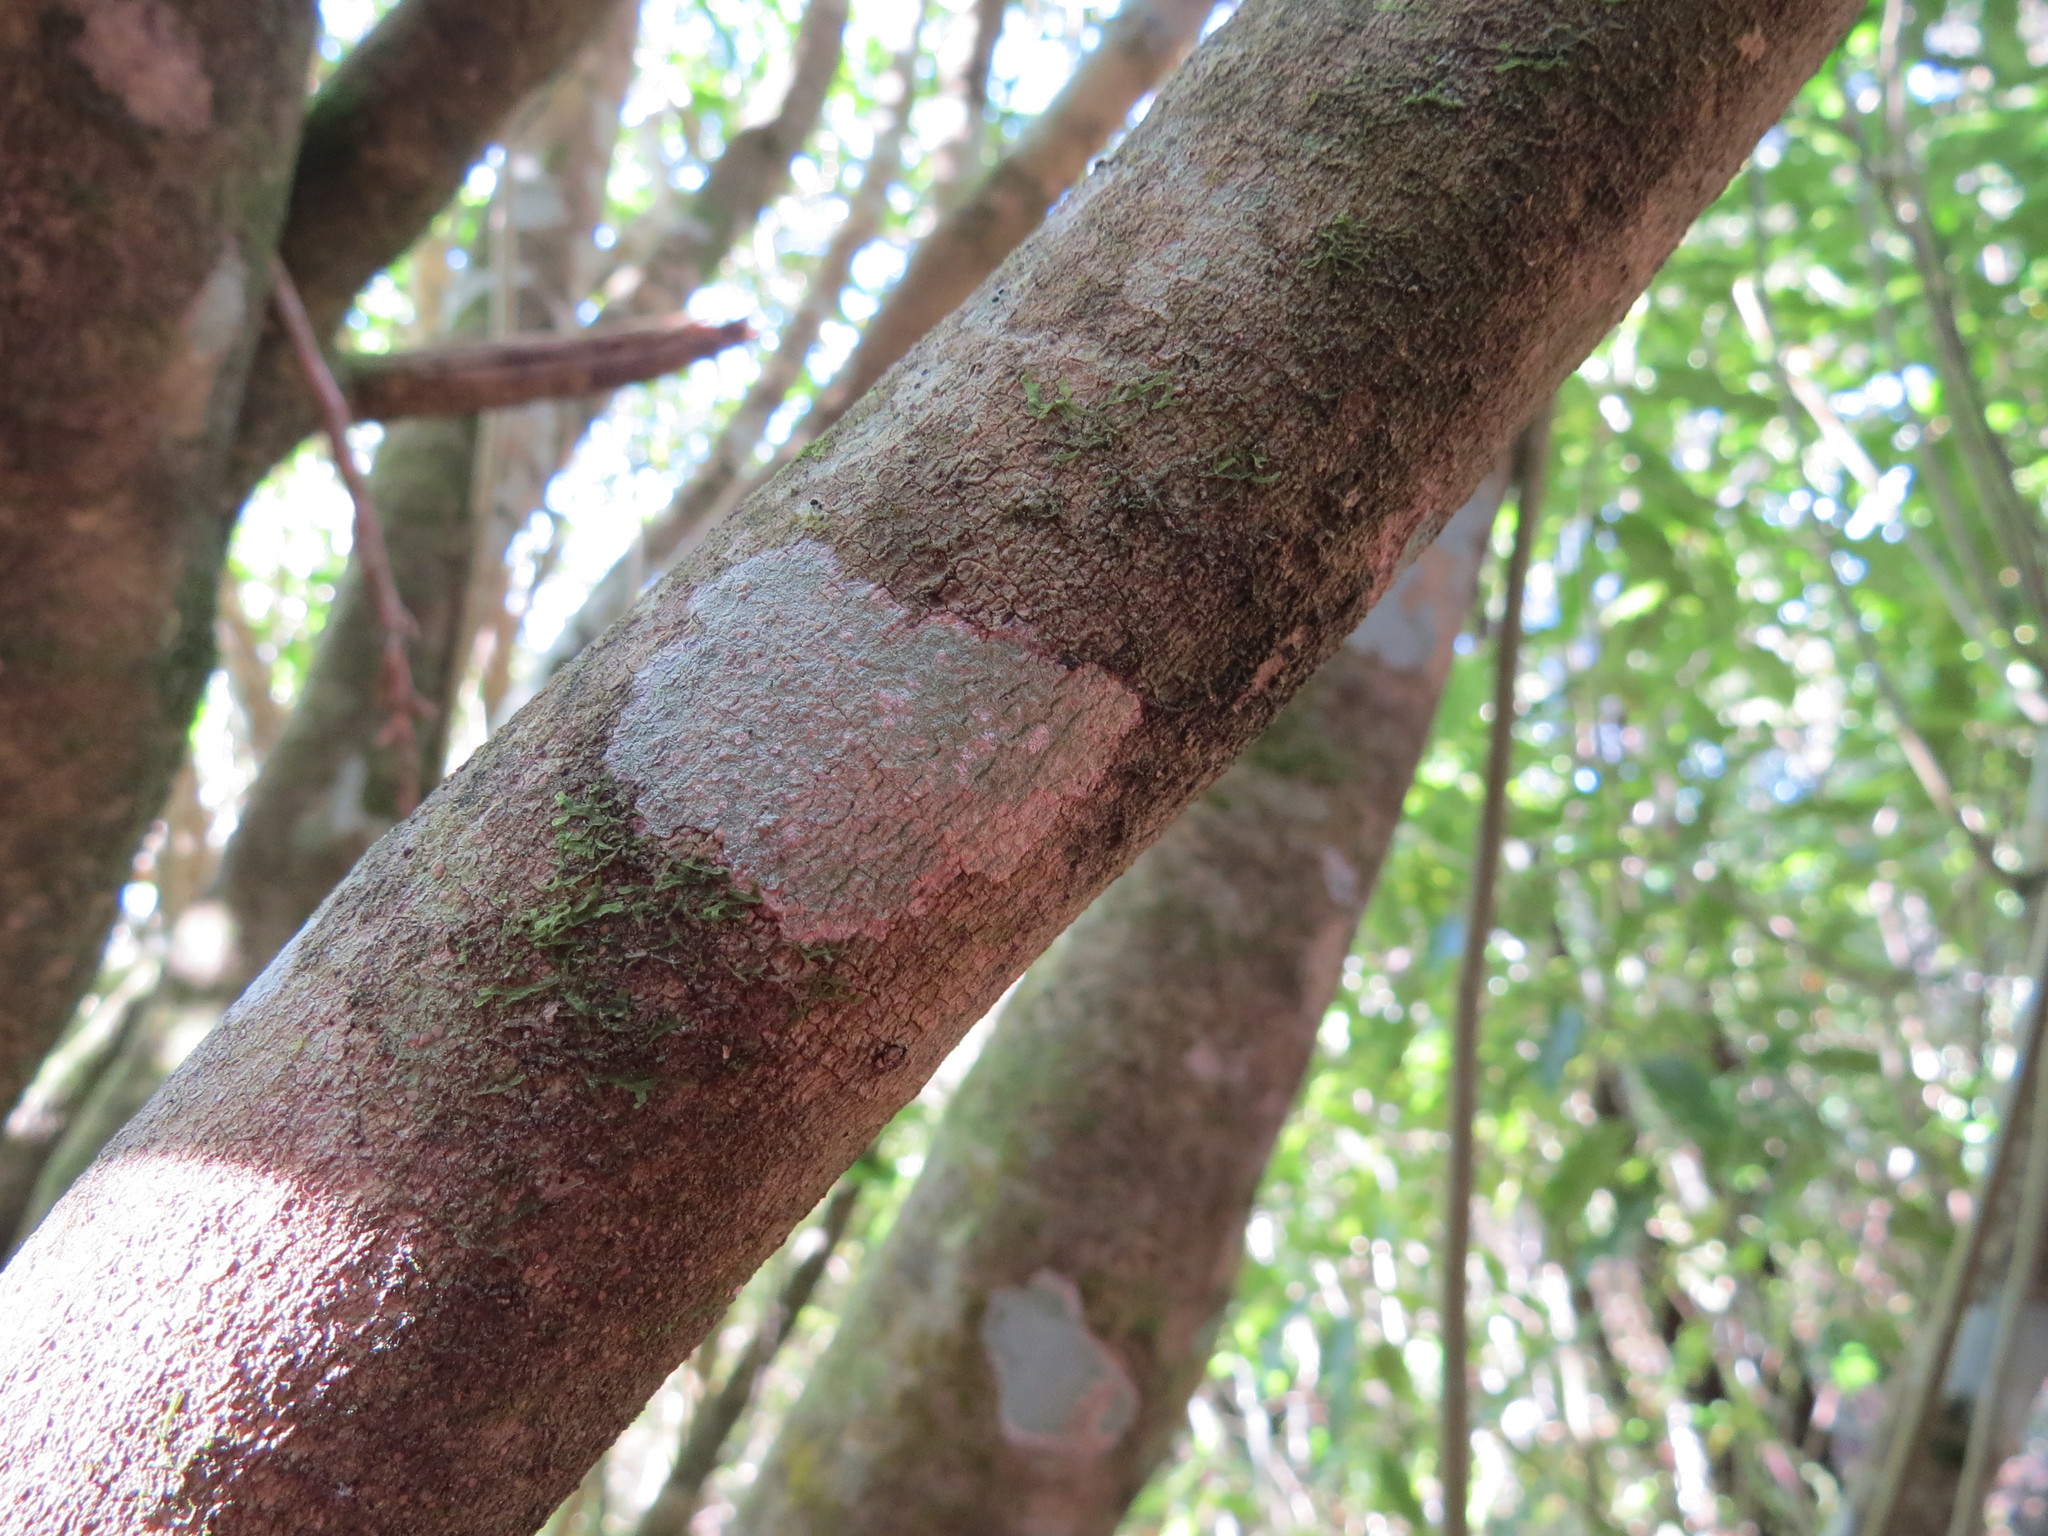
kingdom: Plantae
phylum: Tracheophyta
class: Magnoliopsida
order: Malpighiales
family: Violaceae
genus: Melicytus
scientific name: Melicytus ramiflorus
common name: Mahoe
